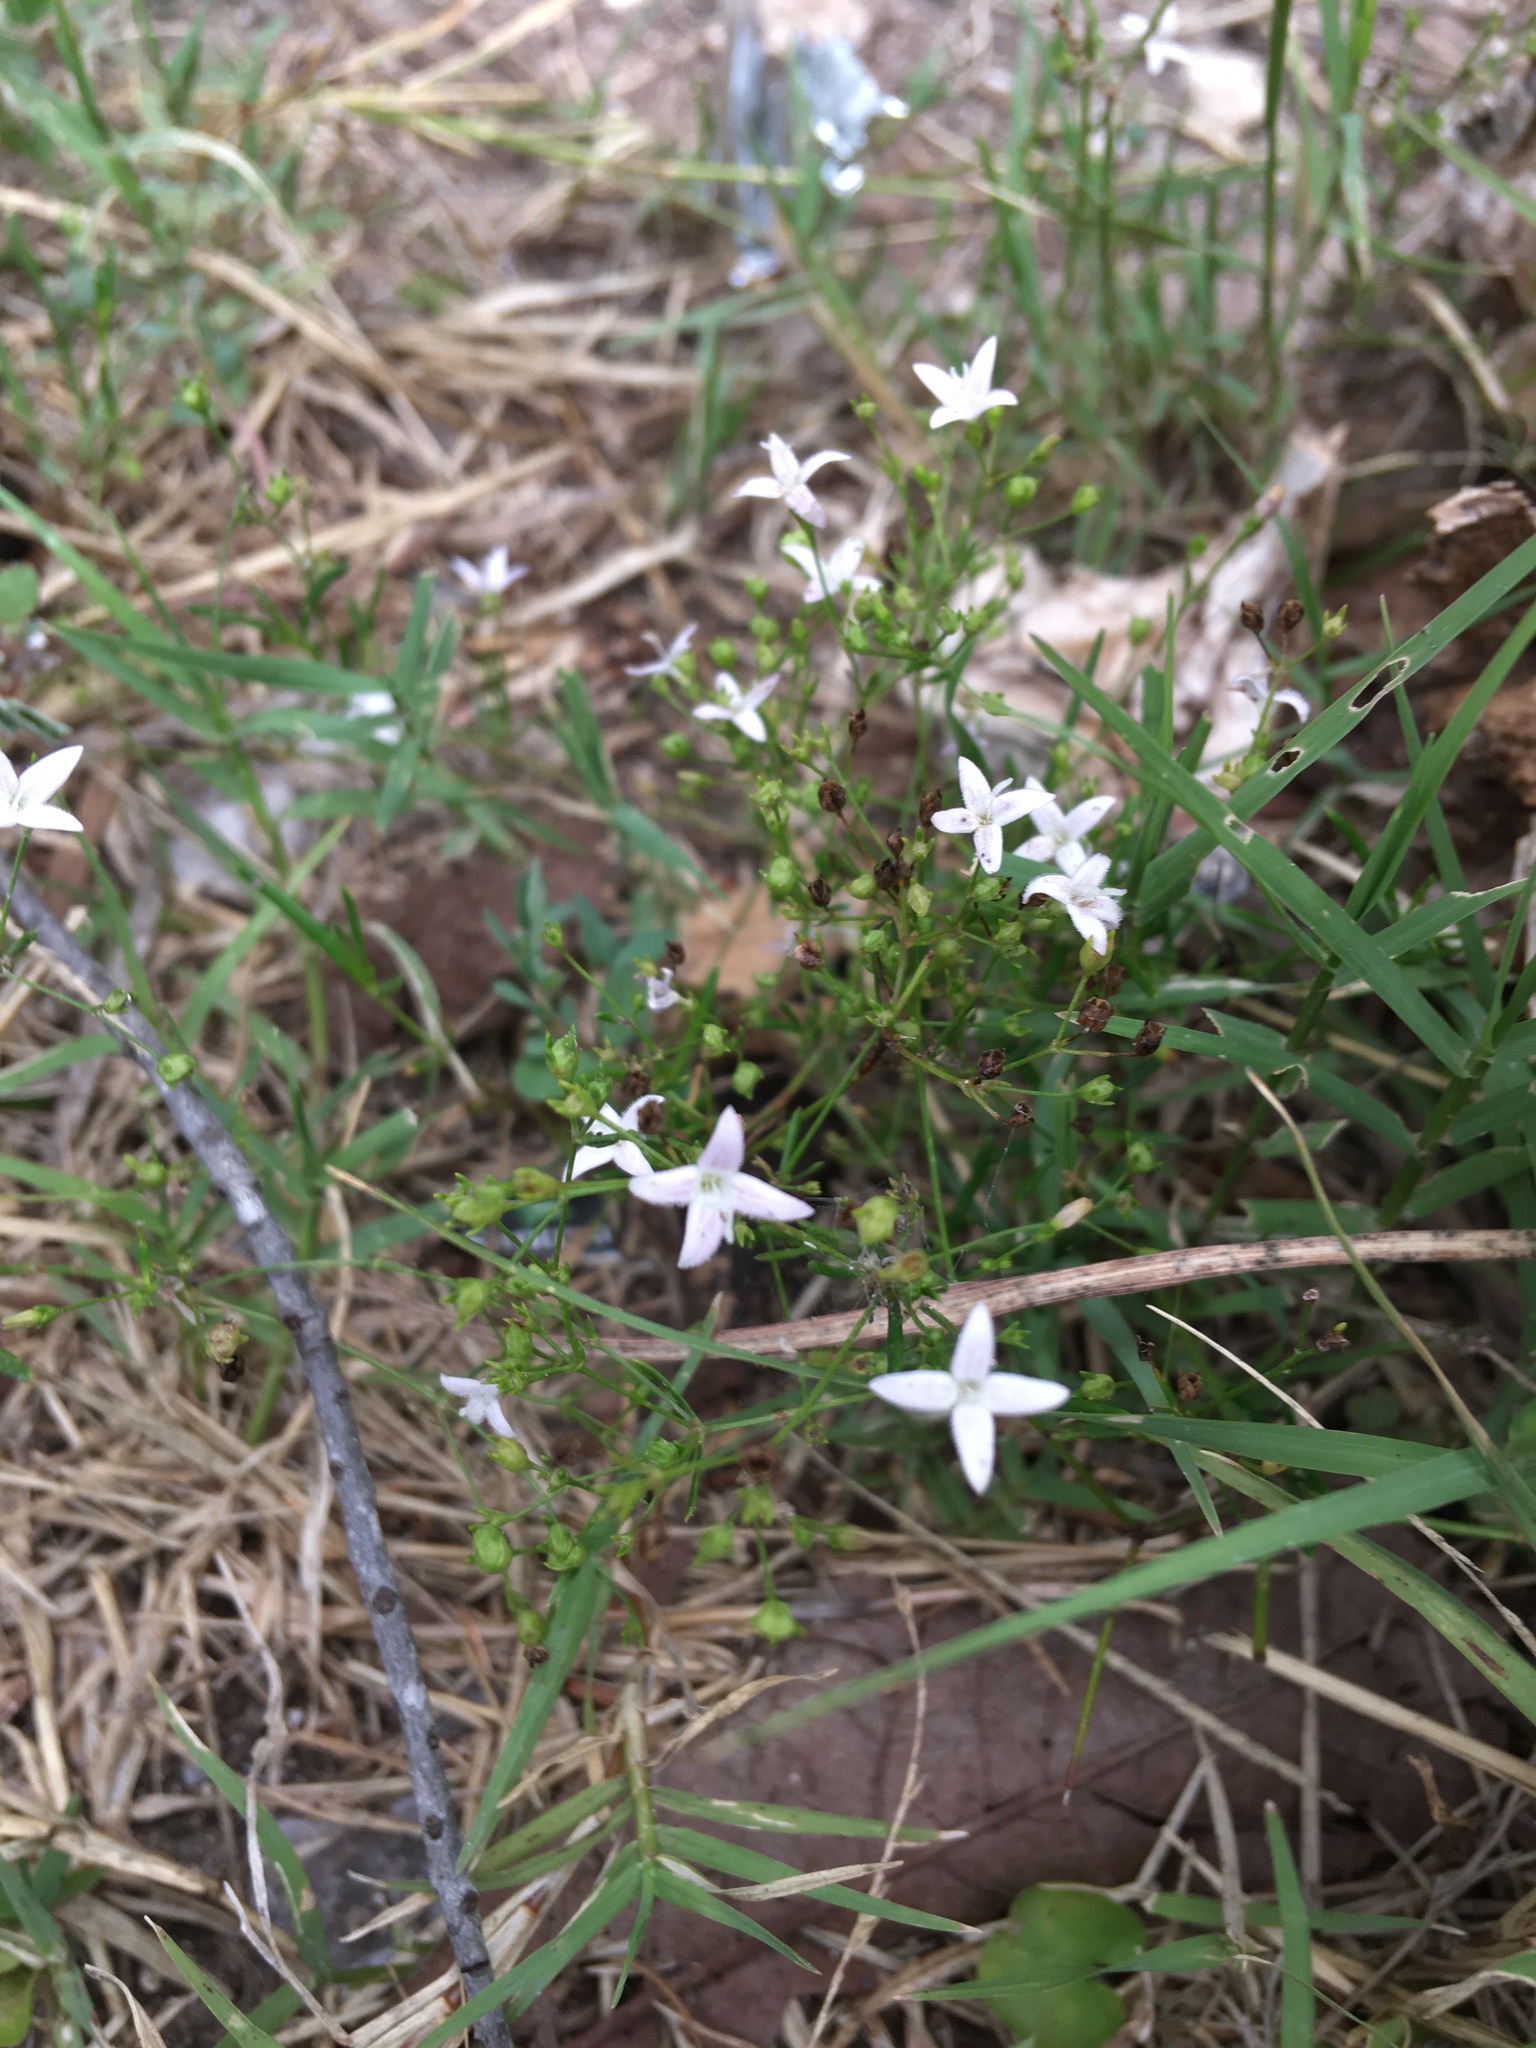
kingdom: Plantae
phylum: Tracheophyta
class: Magnoliopsida
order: Gentianales
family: Rubiaceae
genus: Stenaria
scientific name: Stenaria nigricans
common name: Diamondflowers
